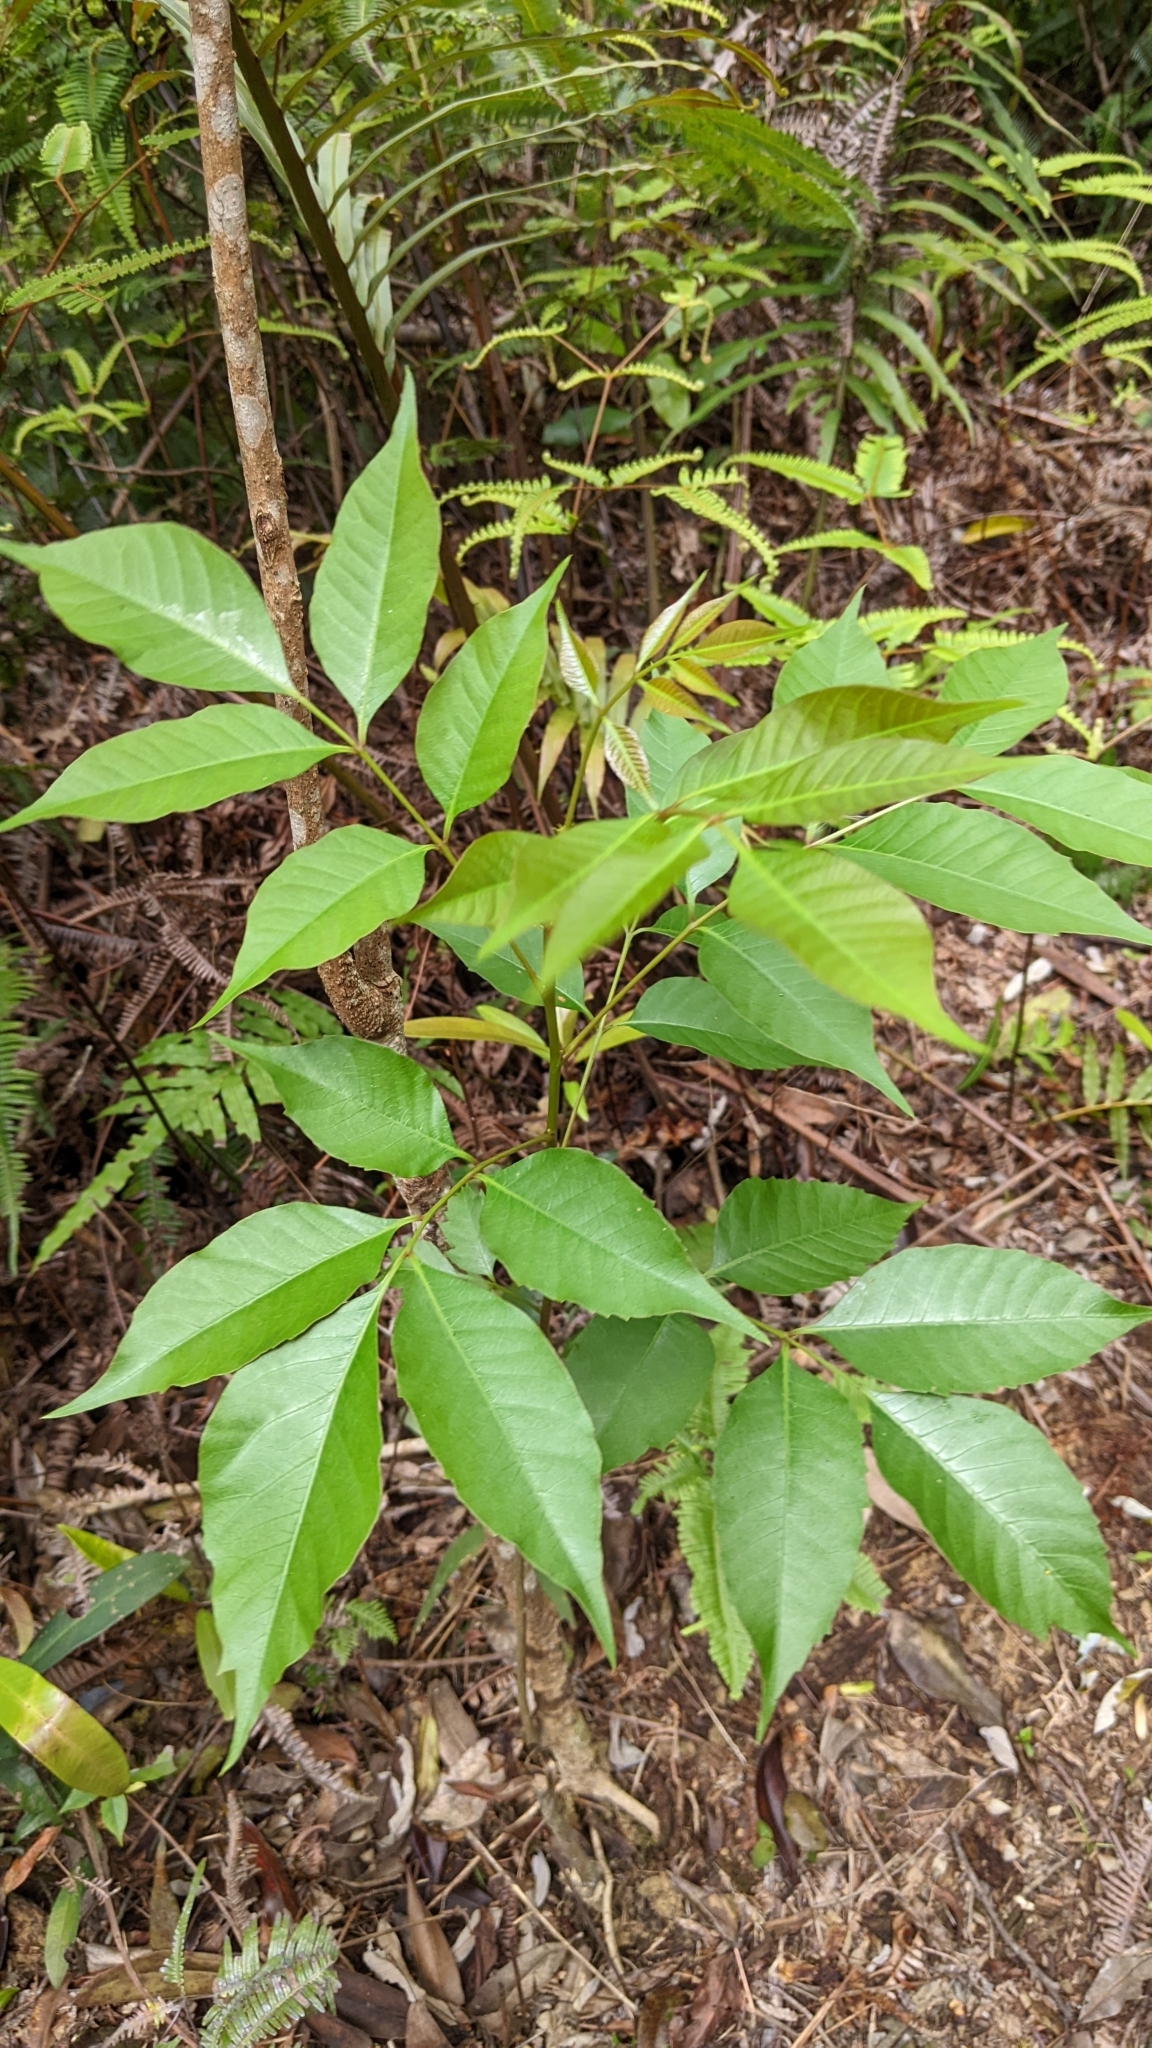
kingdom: Plantae
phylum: Tracheophyta
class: Magnoliopsida
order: Sapindales
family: Anacardiaceae
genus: Toxicodendron
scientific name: Toxicodendron succedaneum
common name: Wax tree
